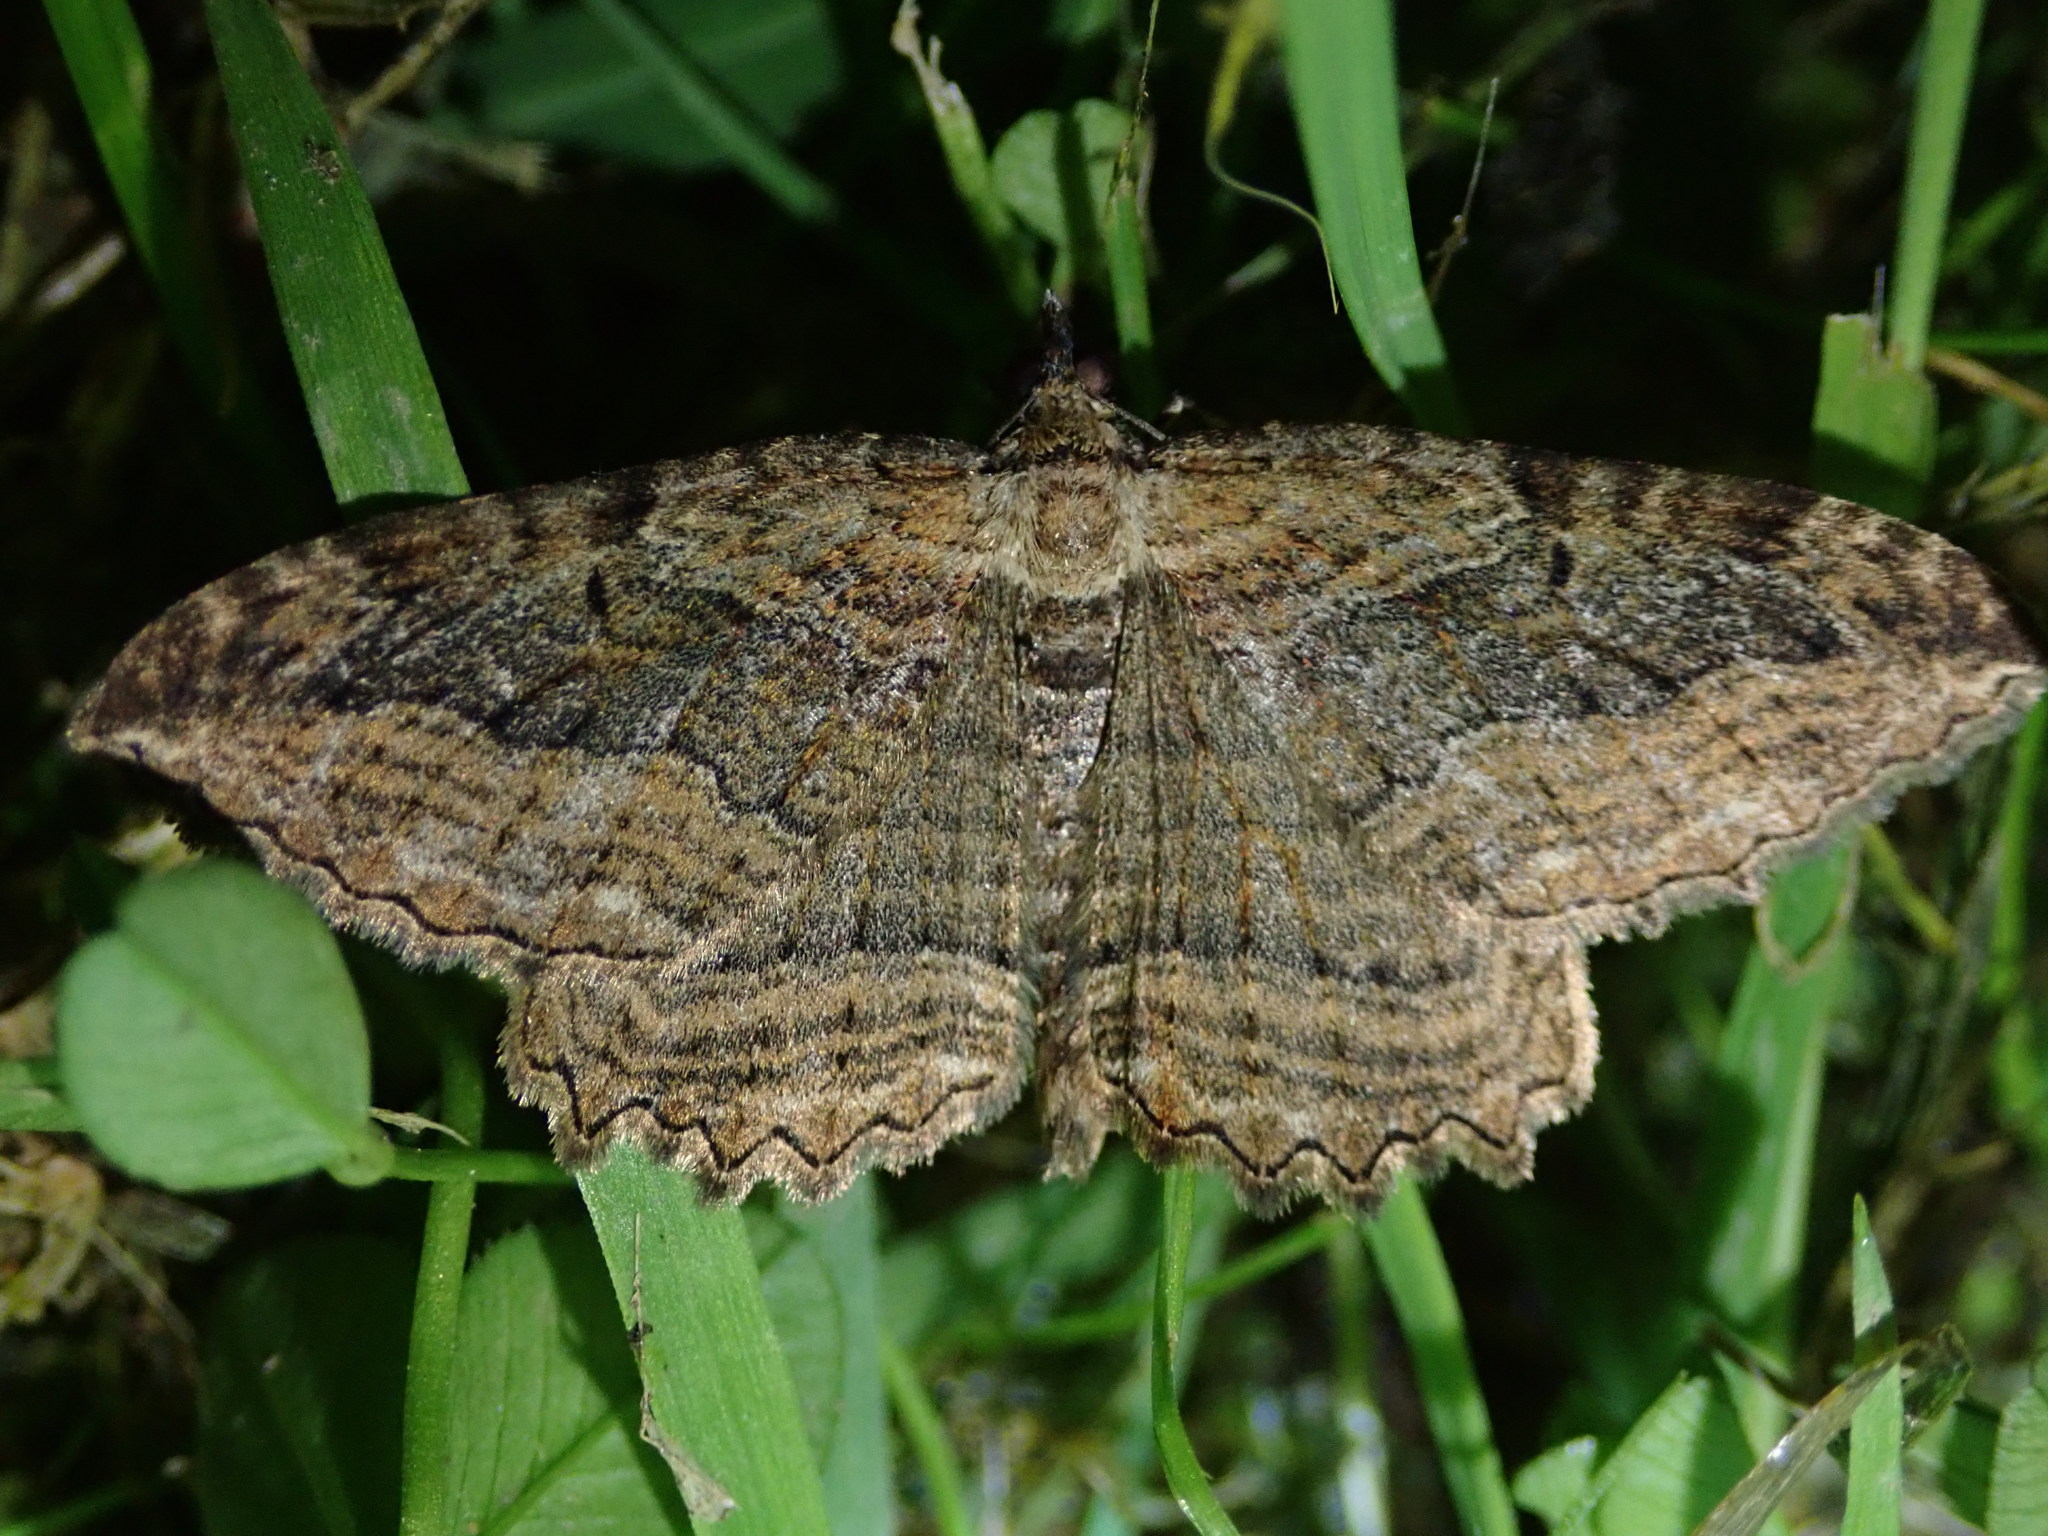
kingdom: Animalia
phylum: Arthropoda
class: Insecta
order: Lepidoptera
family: Geometridae
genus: Philereme
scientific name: Philereme transversata
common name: Dark umber
